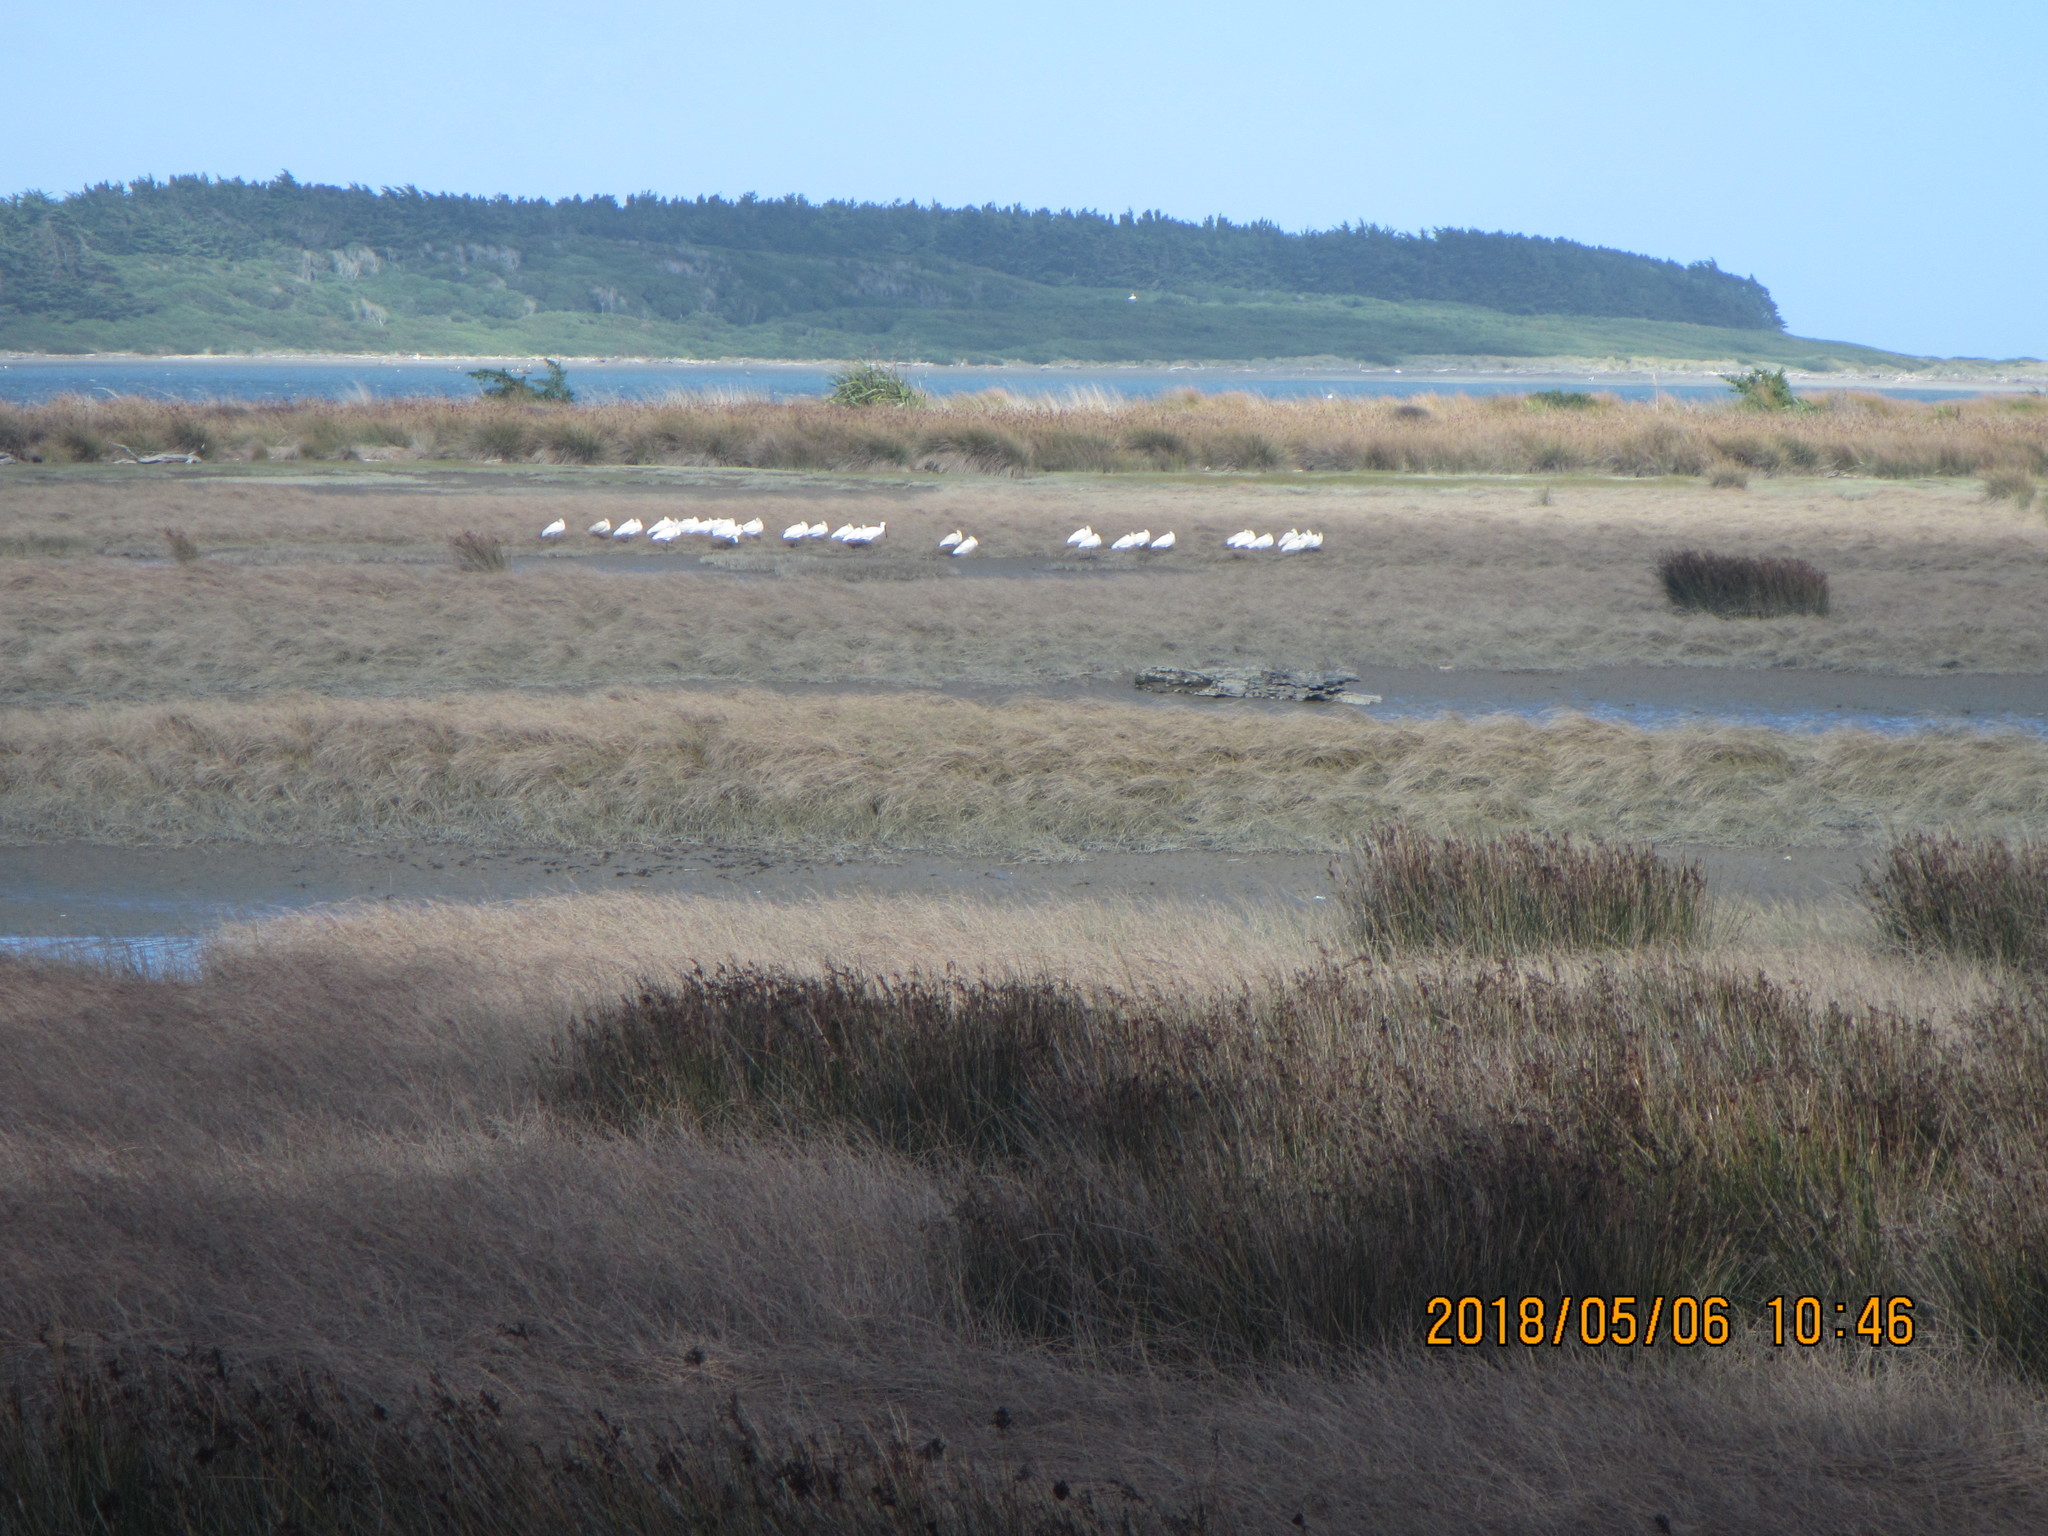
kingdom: Animalia
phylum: Chordata
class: Aves
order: Pelecaniformes
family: Threskiornithidae
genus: Platalea
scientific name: Platalea regia
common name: Royal spoonbill
